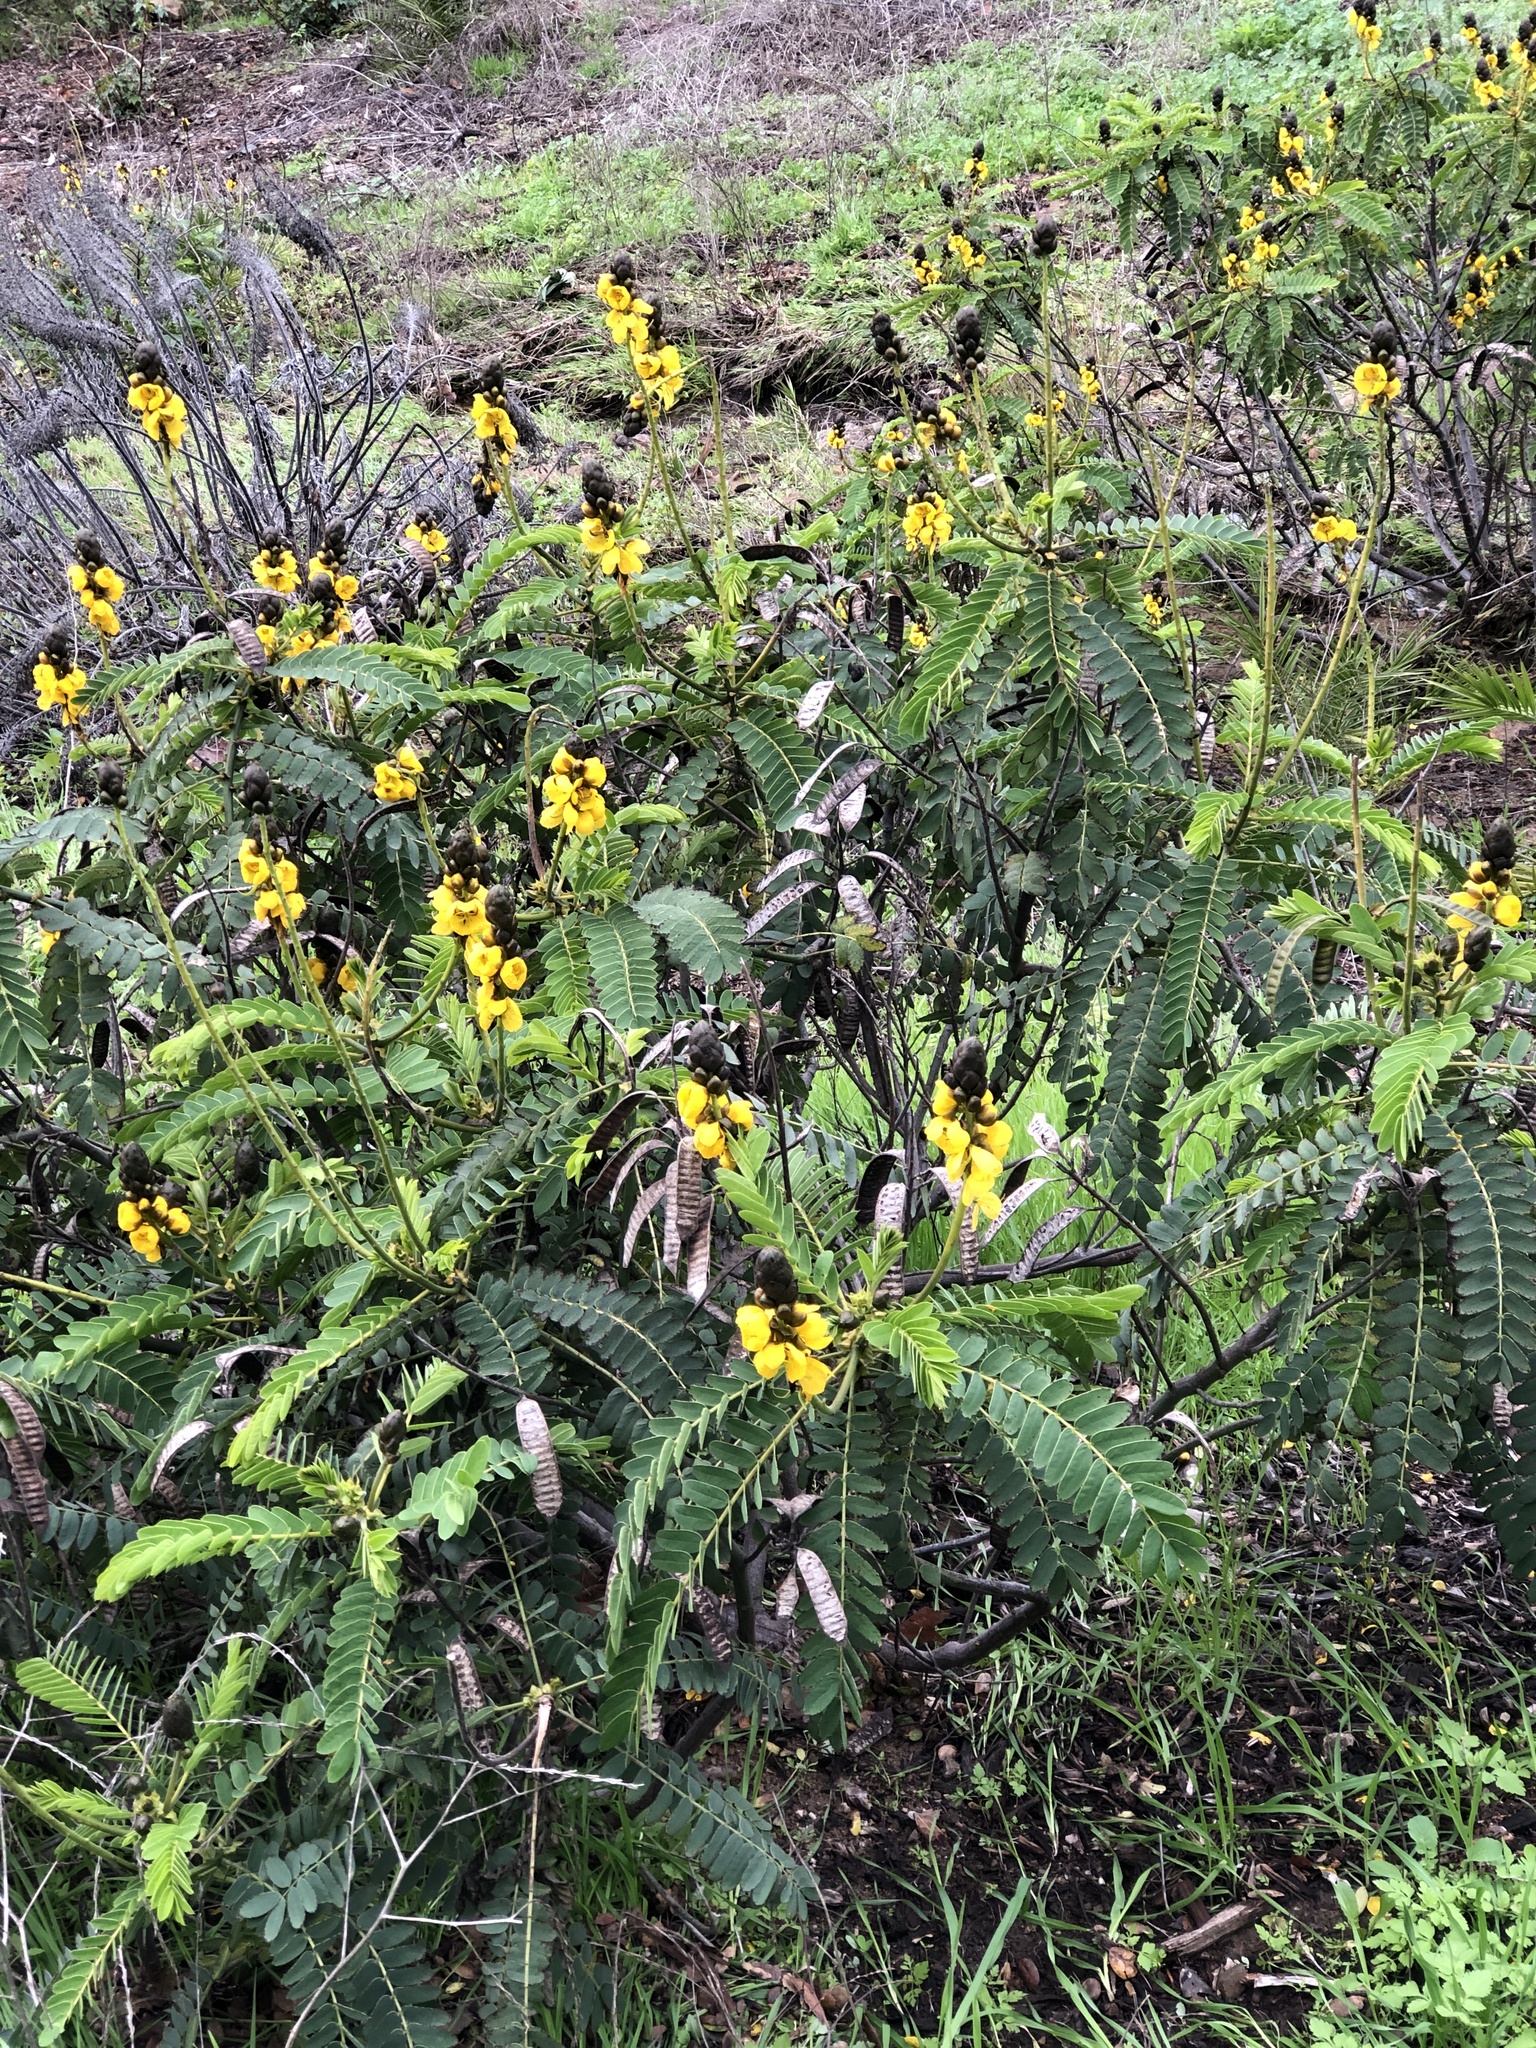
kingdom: Plantae
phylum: Tracheophyta
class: Magnoliopsida
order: Fabales
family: Fabaceae
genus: Senna
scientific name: Senna didymobotrya
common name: African senna
